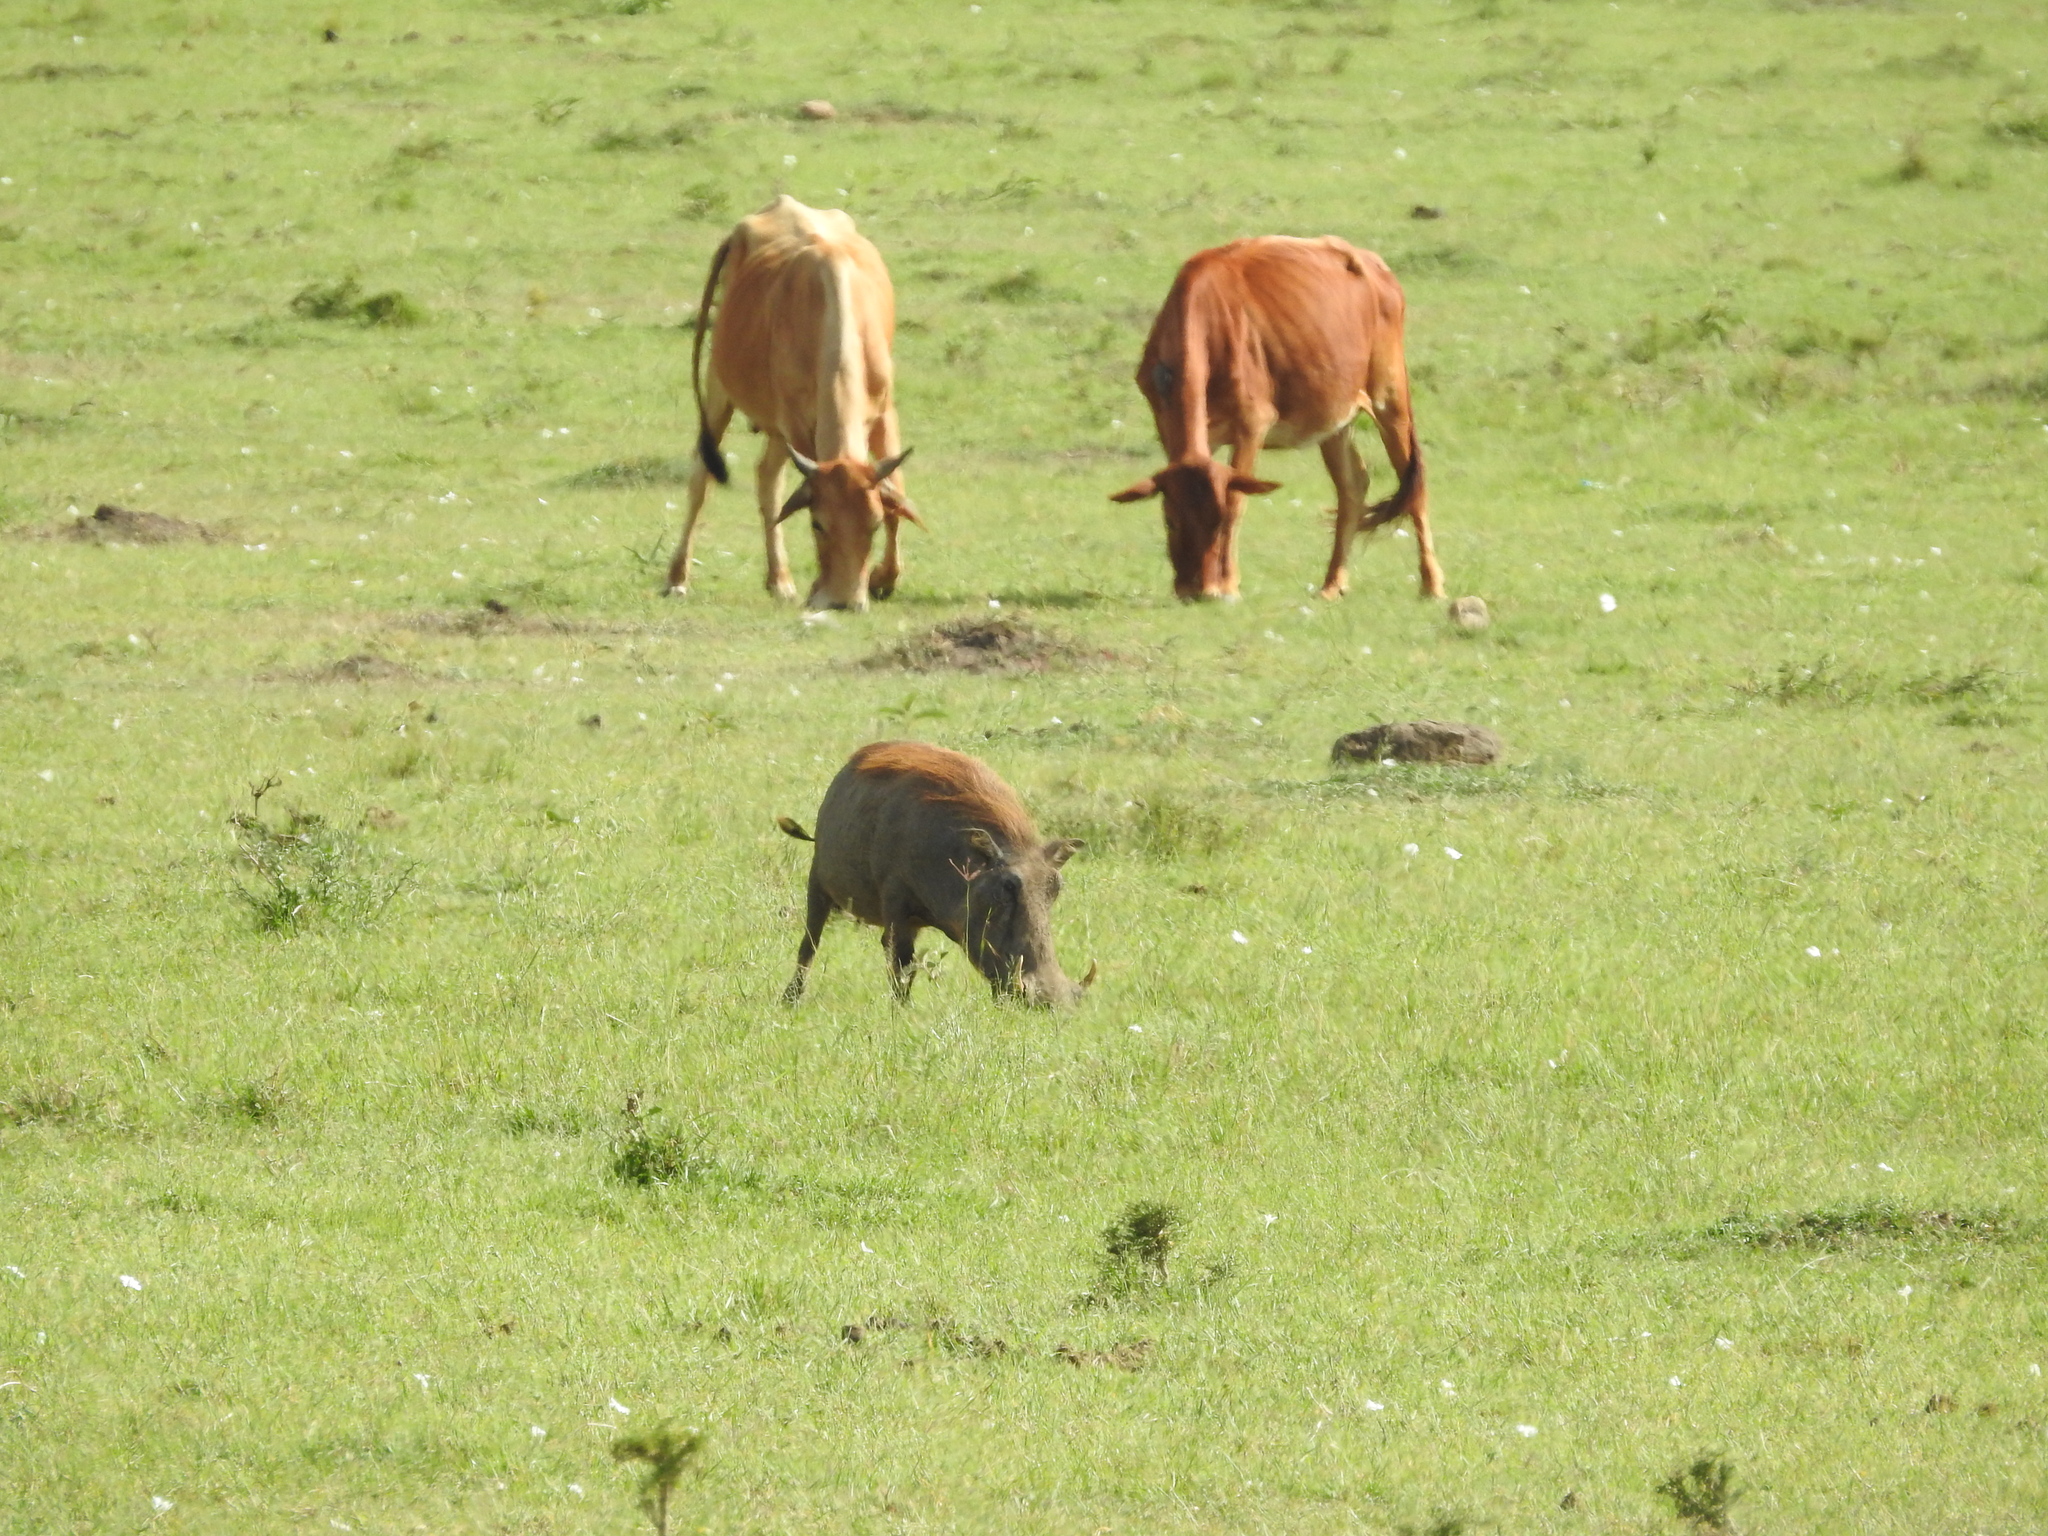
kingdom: Animalia
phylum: Chordata
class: Mammalia
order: Artiodactyla
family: Suidae
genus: Phacochoerus
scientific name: Phacochoerus africanus
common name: Common warthog
